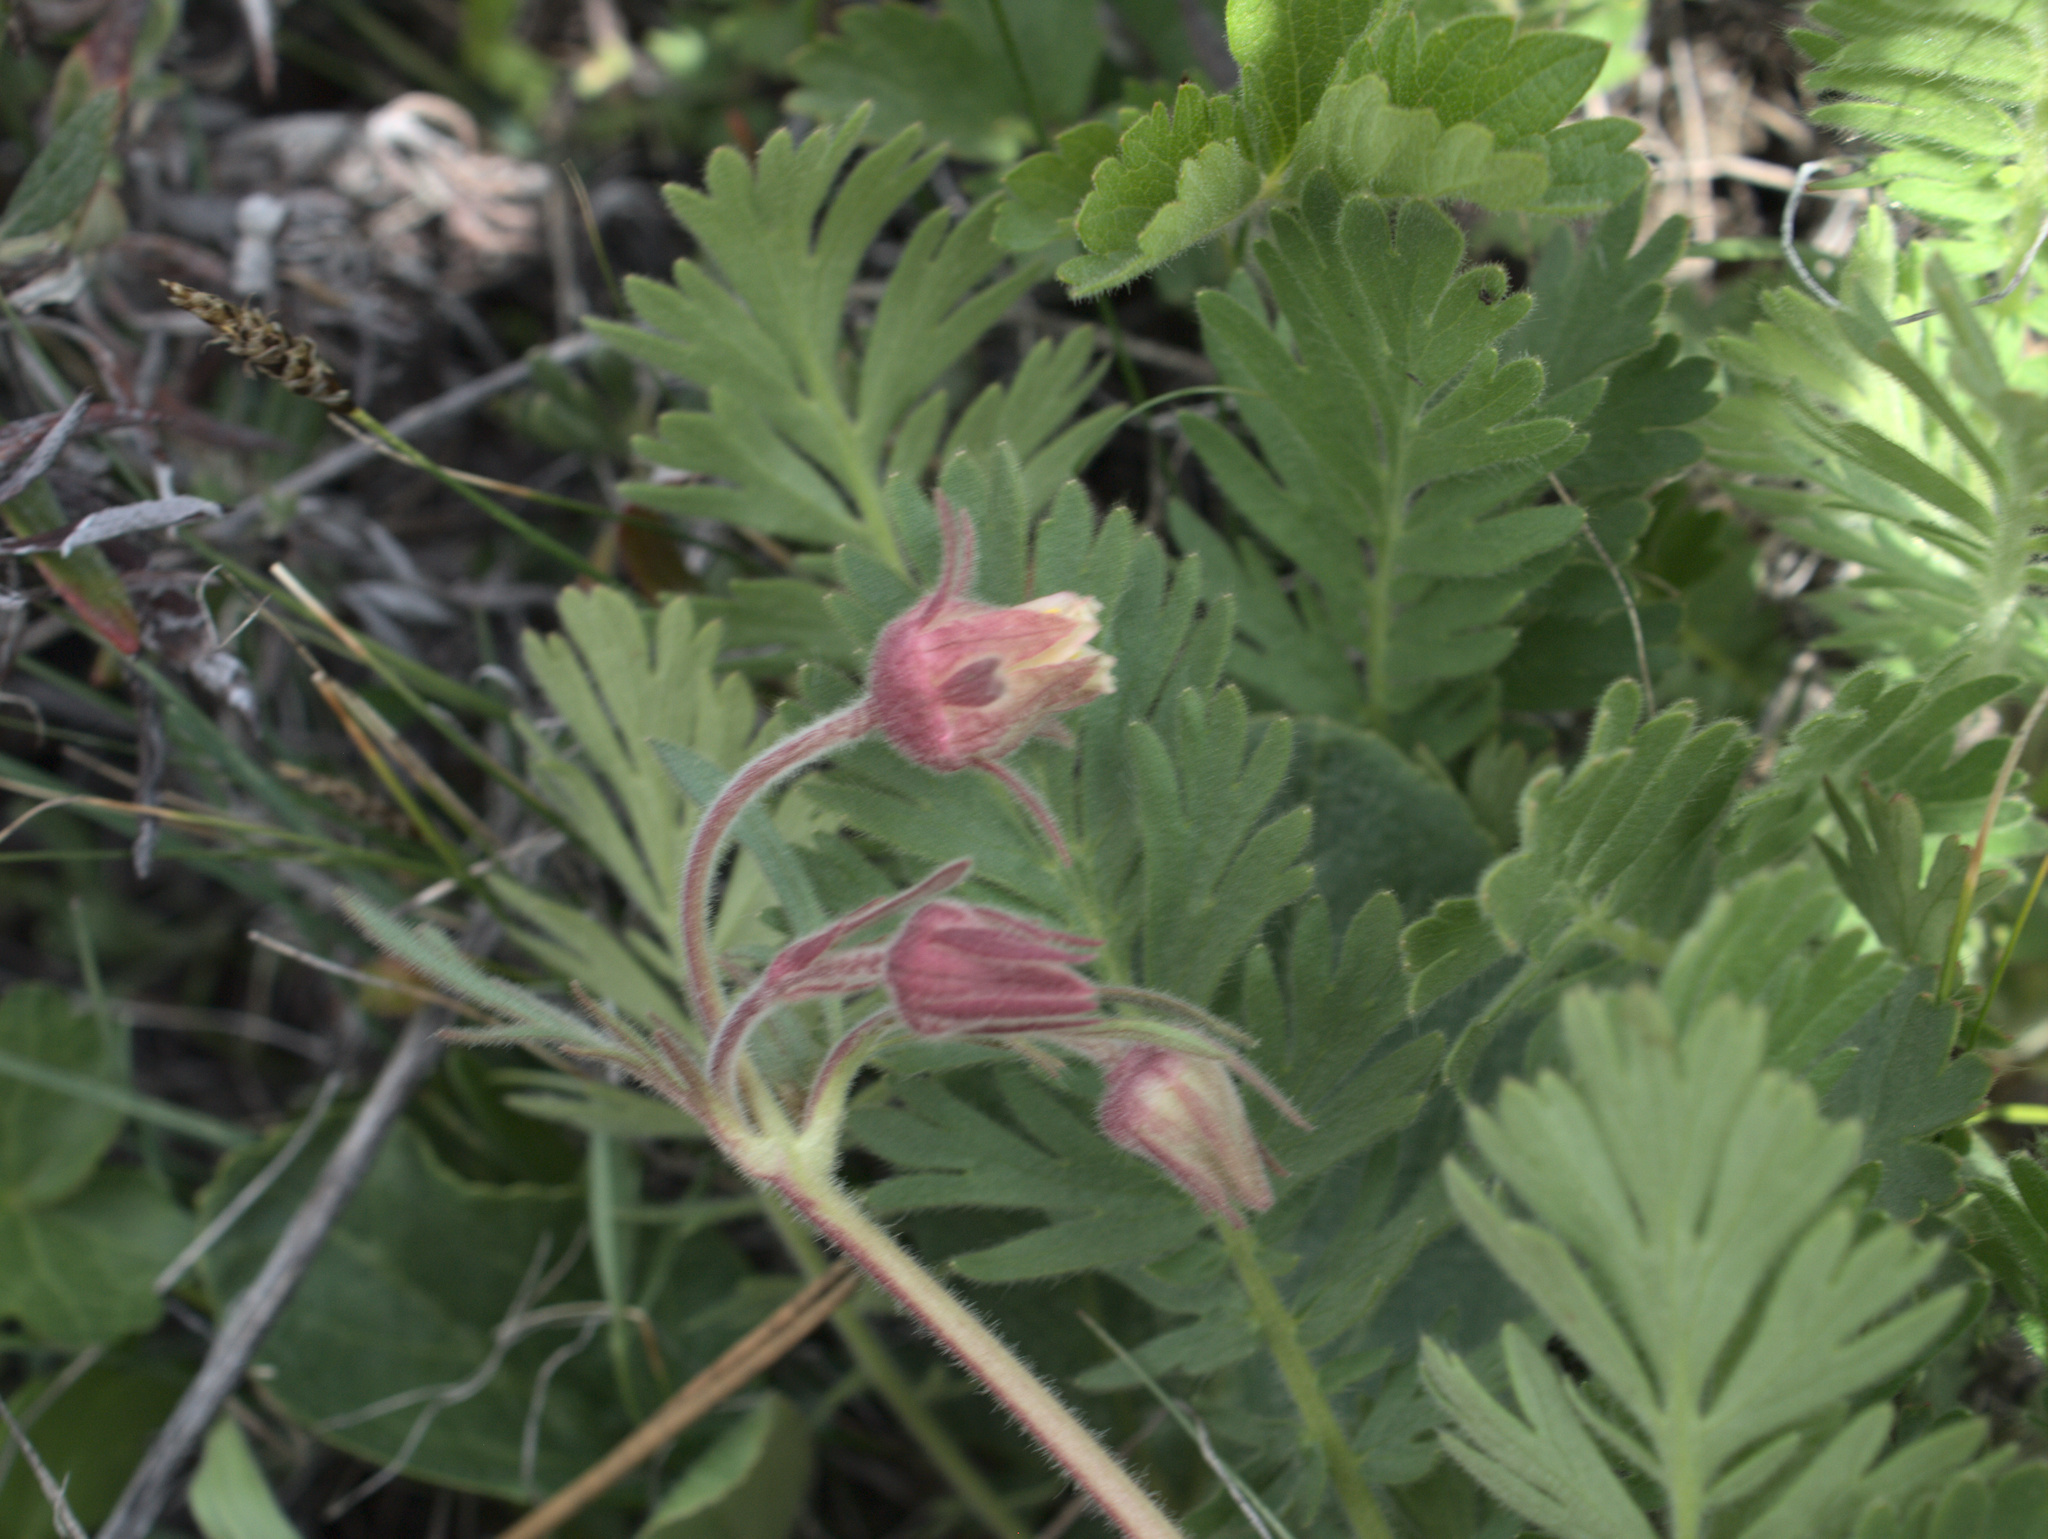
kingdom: Plantae
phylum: Tracheophyta
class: Magnoliopsida
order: Rosales
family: Rosaceae
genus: Geum
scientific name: Geum triflorum
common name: Old man's whiskers
